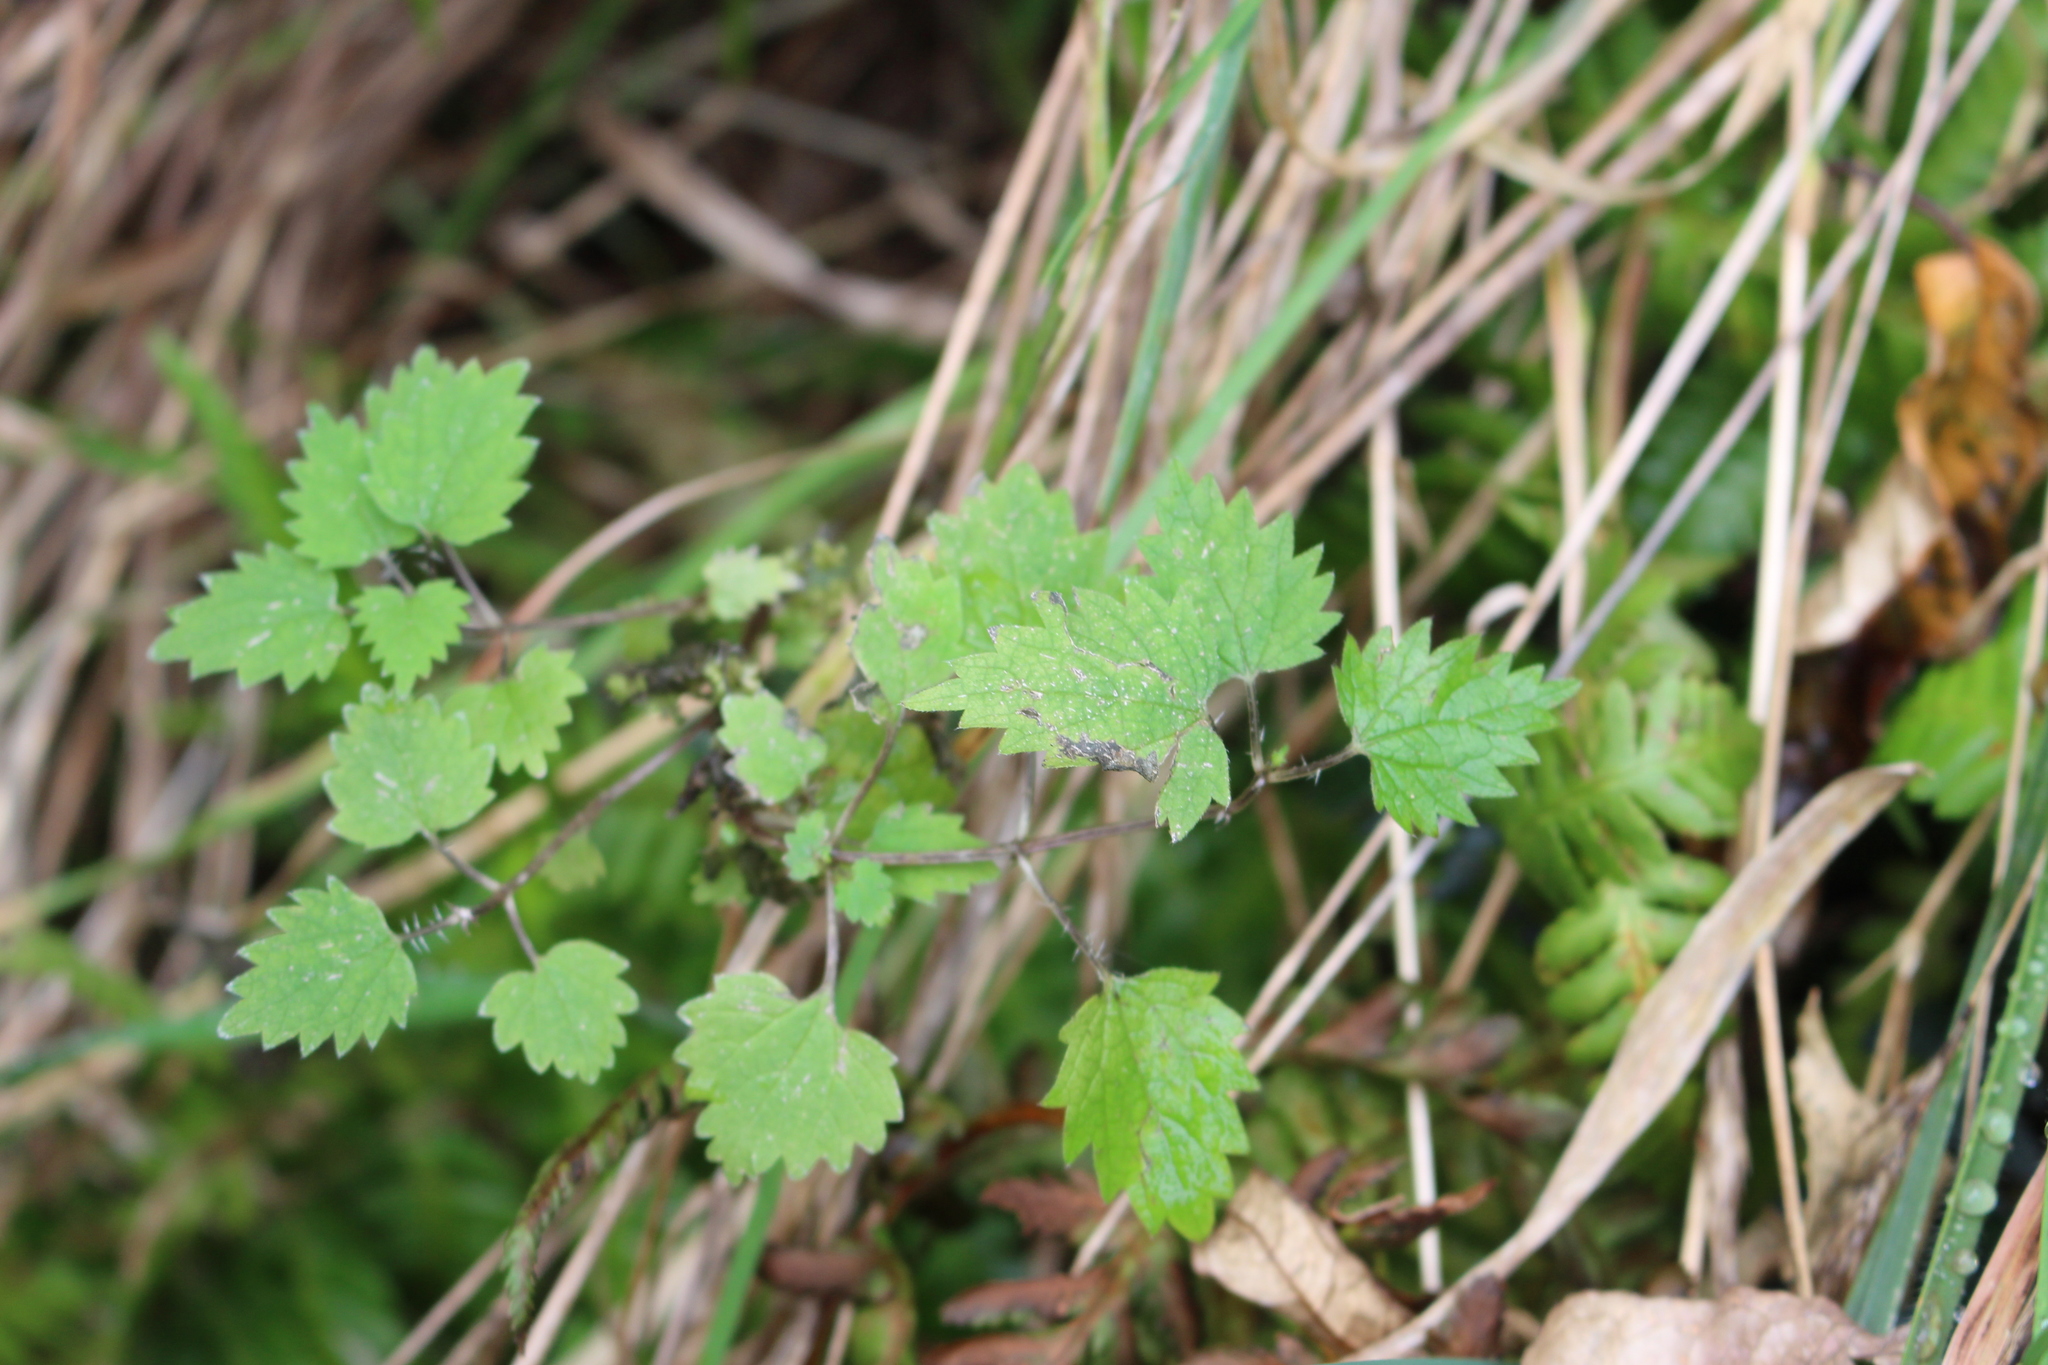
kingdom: Plantae
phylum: Tracheophyta
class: Magnoliopsida
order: Rosales
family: Urticaceae
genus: Urtica
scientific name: Urtica sykesii
